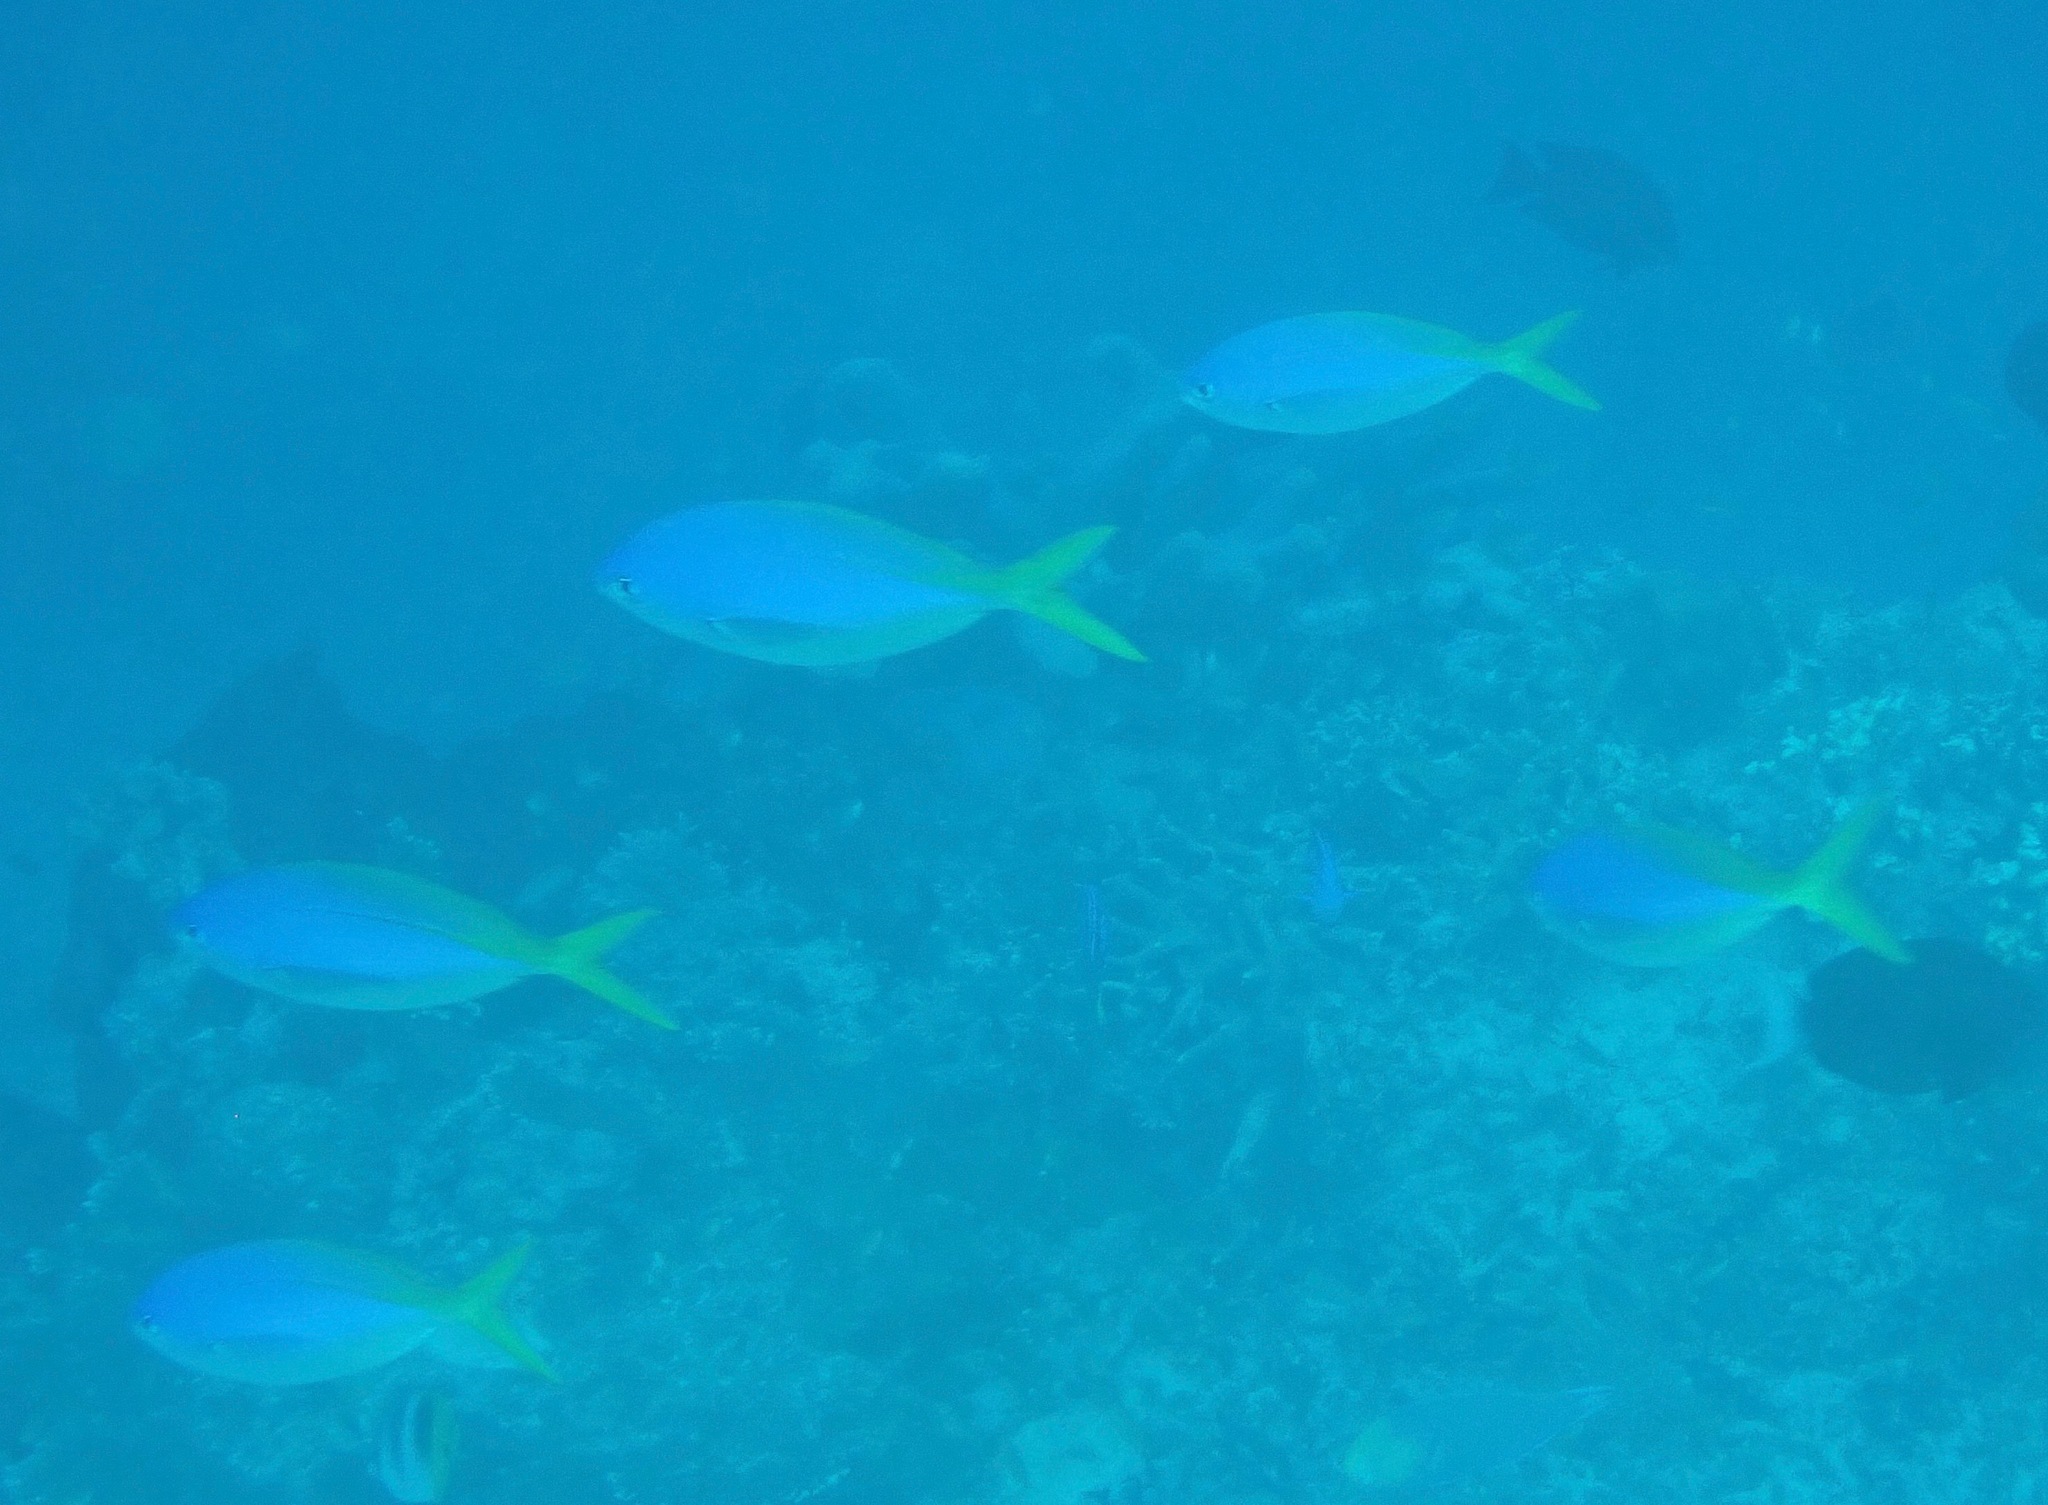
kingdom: Animalia
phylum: Chordata
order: Perciformes
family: Caesionidae
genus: Caesio
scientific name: Caesio teres
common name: Yellow and blueback fusilier
